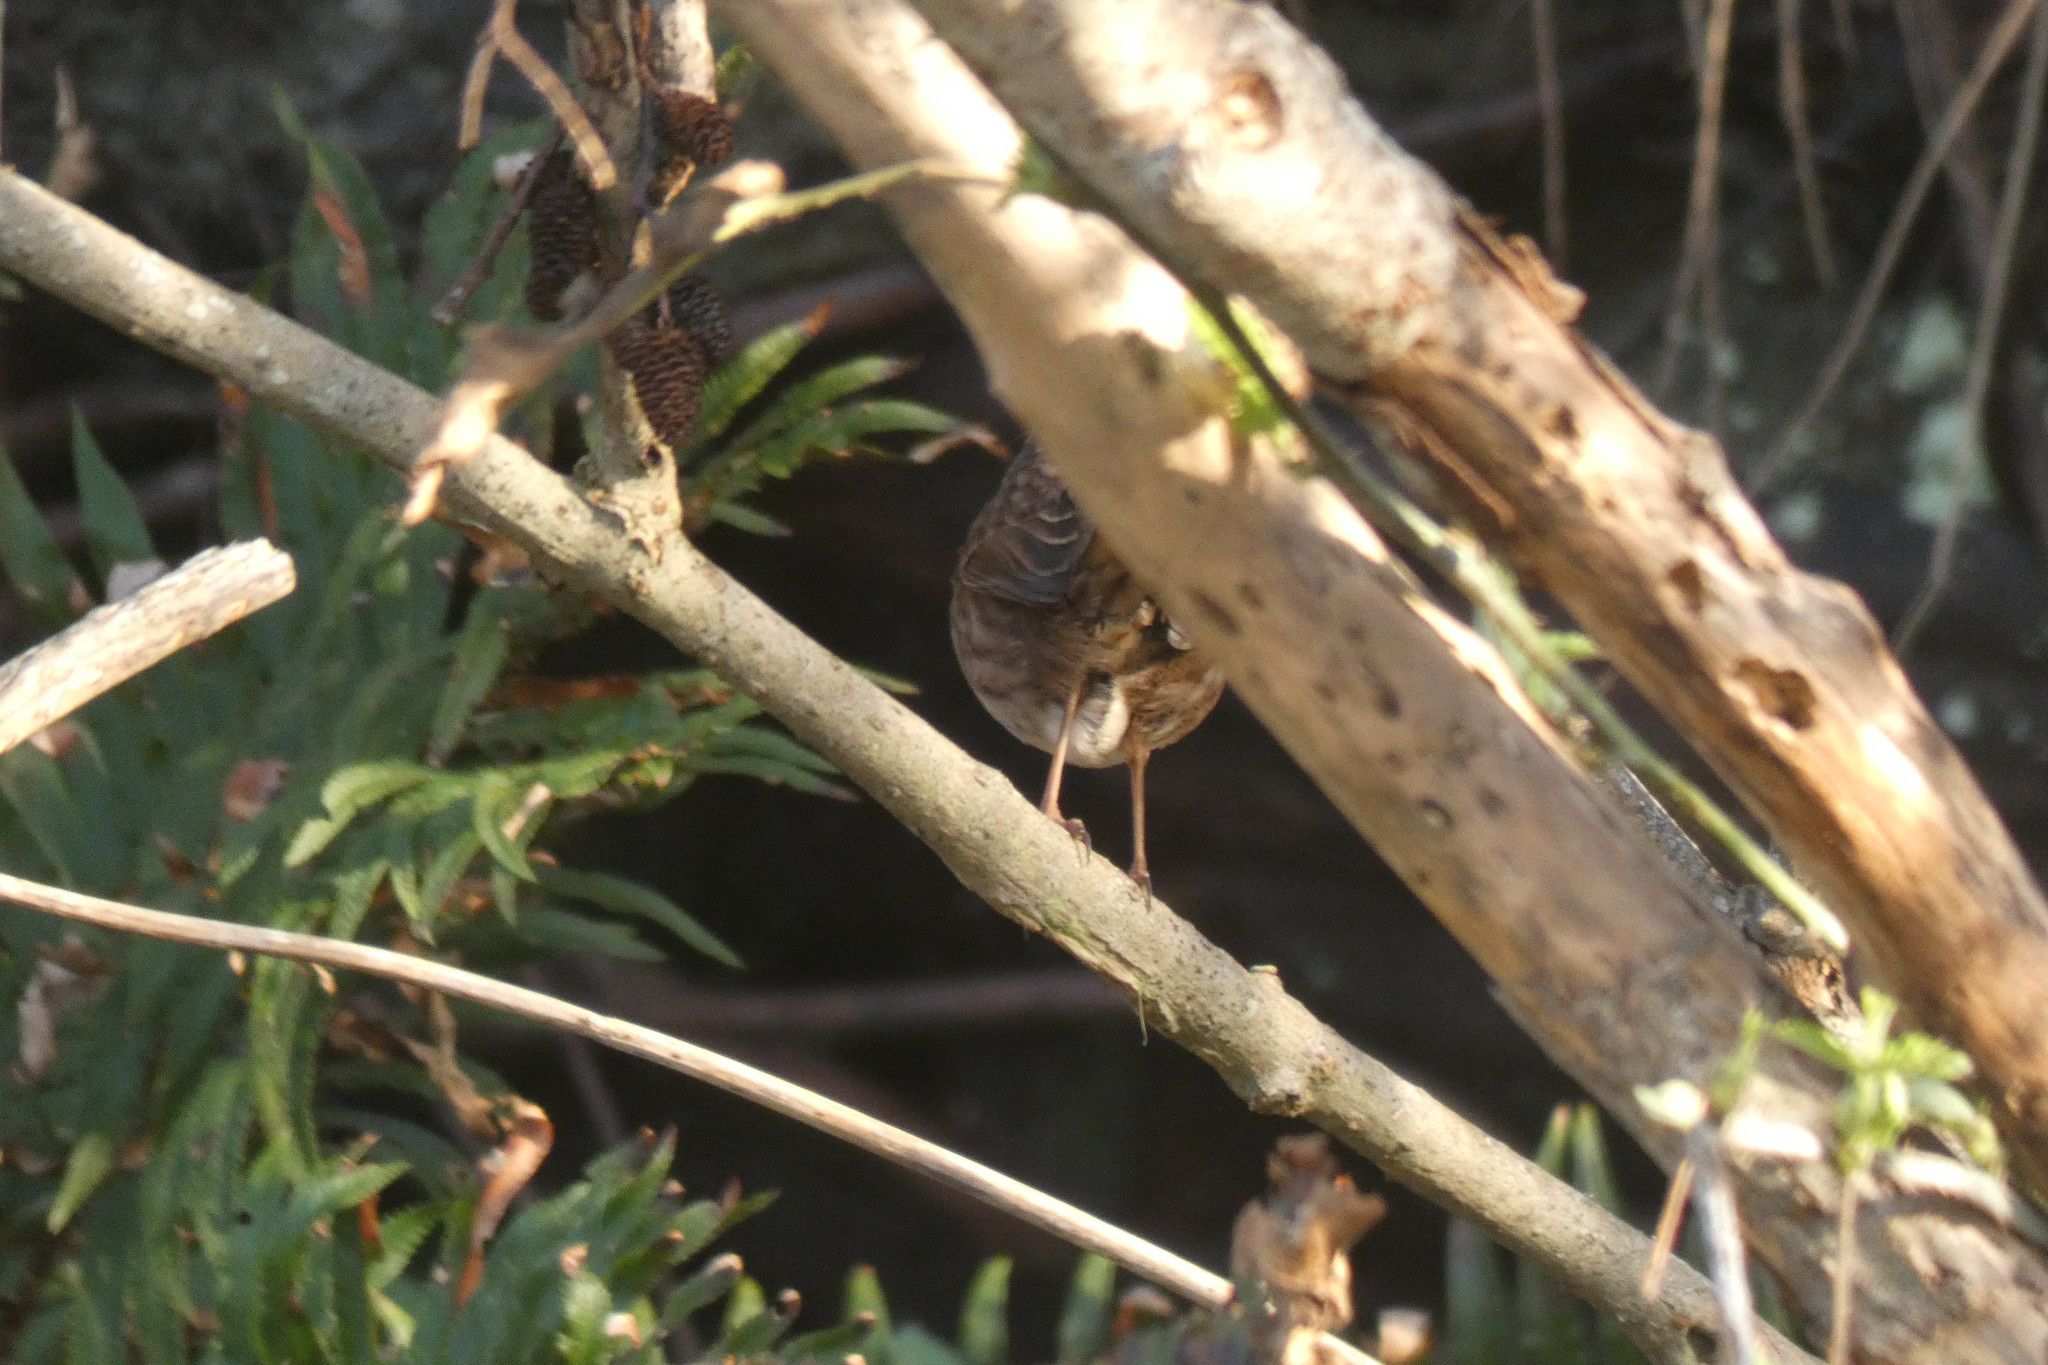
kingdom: Animalia
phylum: Chordata
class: Aves
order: Passeriformes
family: Passerellidae
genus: Melospiza
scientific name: Melospiza melodia
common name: Song sparrow
